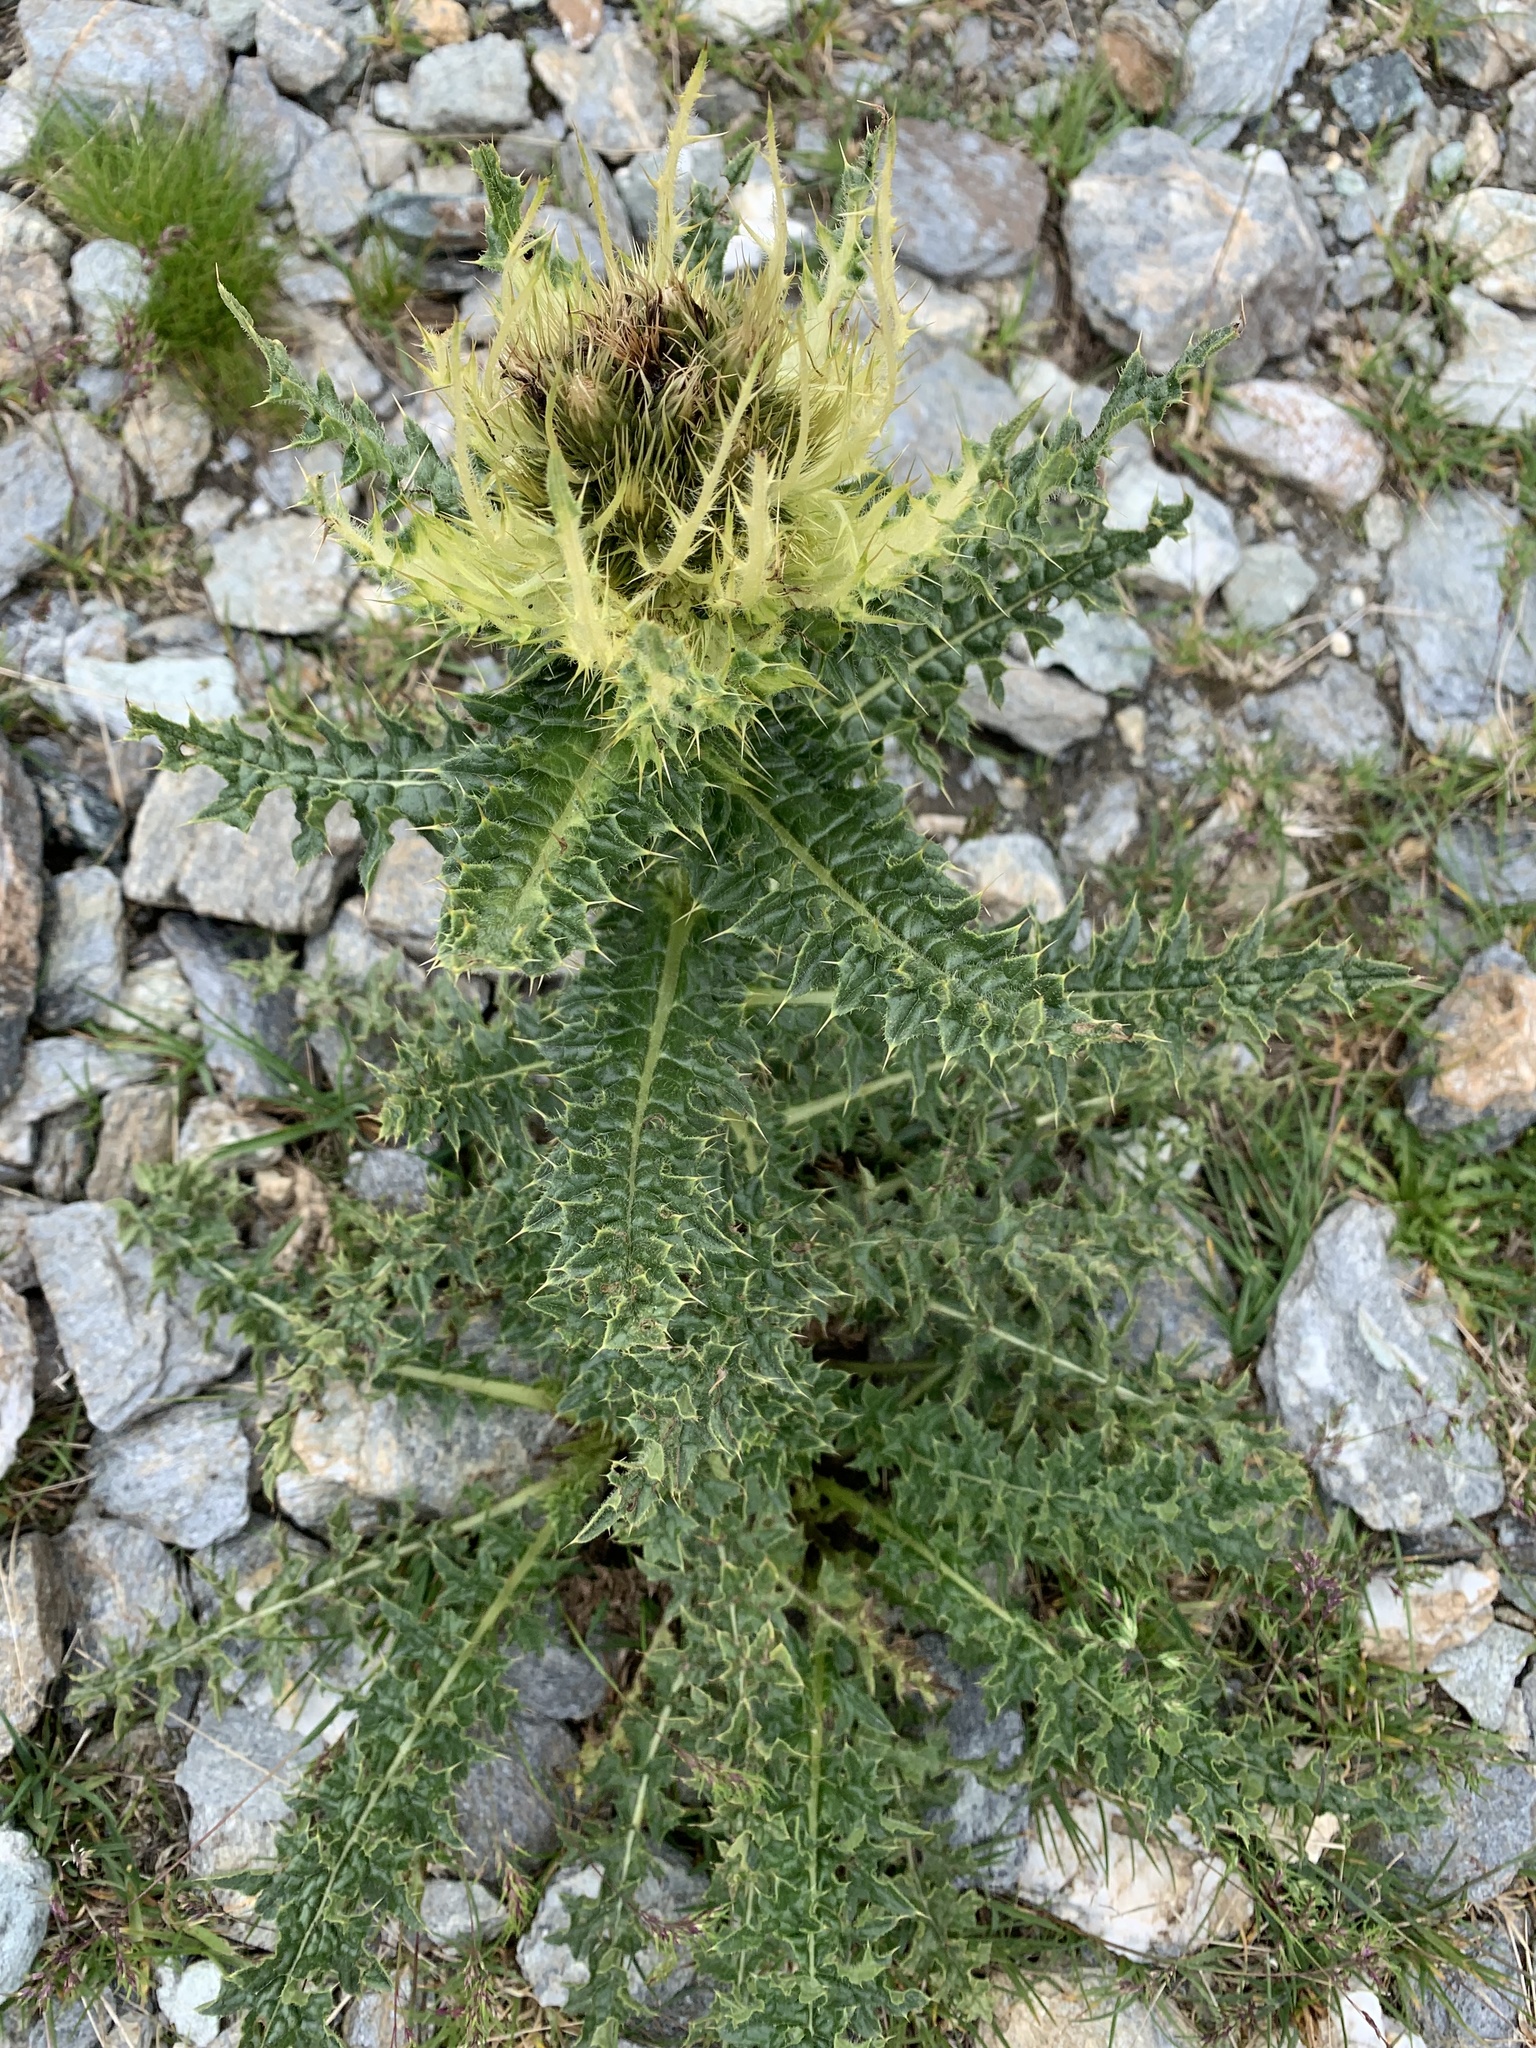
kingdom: Plantae
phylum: Tracheophyta
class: Magnoliopsida
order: Asterales
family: Asteraceae
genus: Cirsium
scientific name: Cirsium spinosissimum
